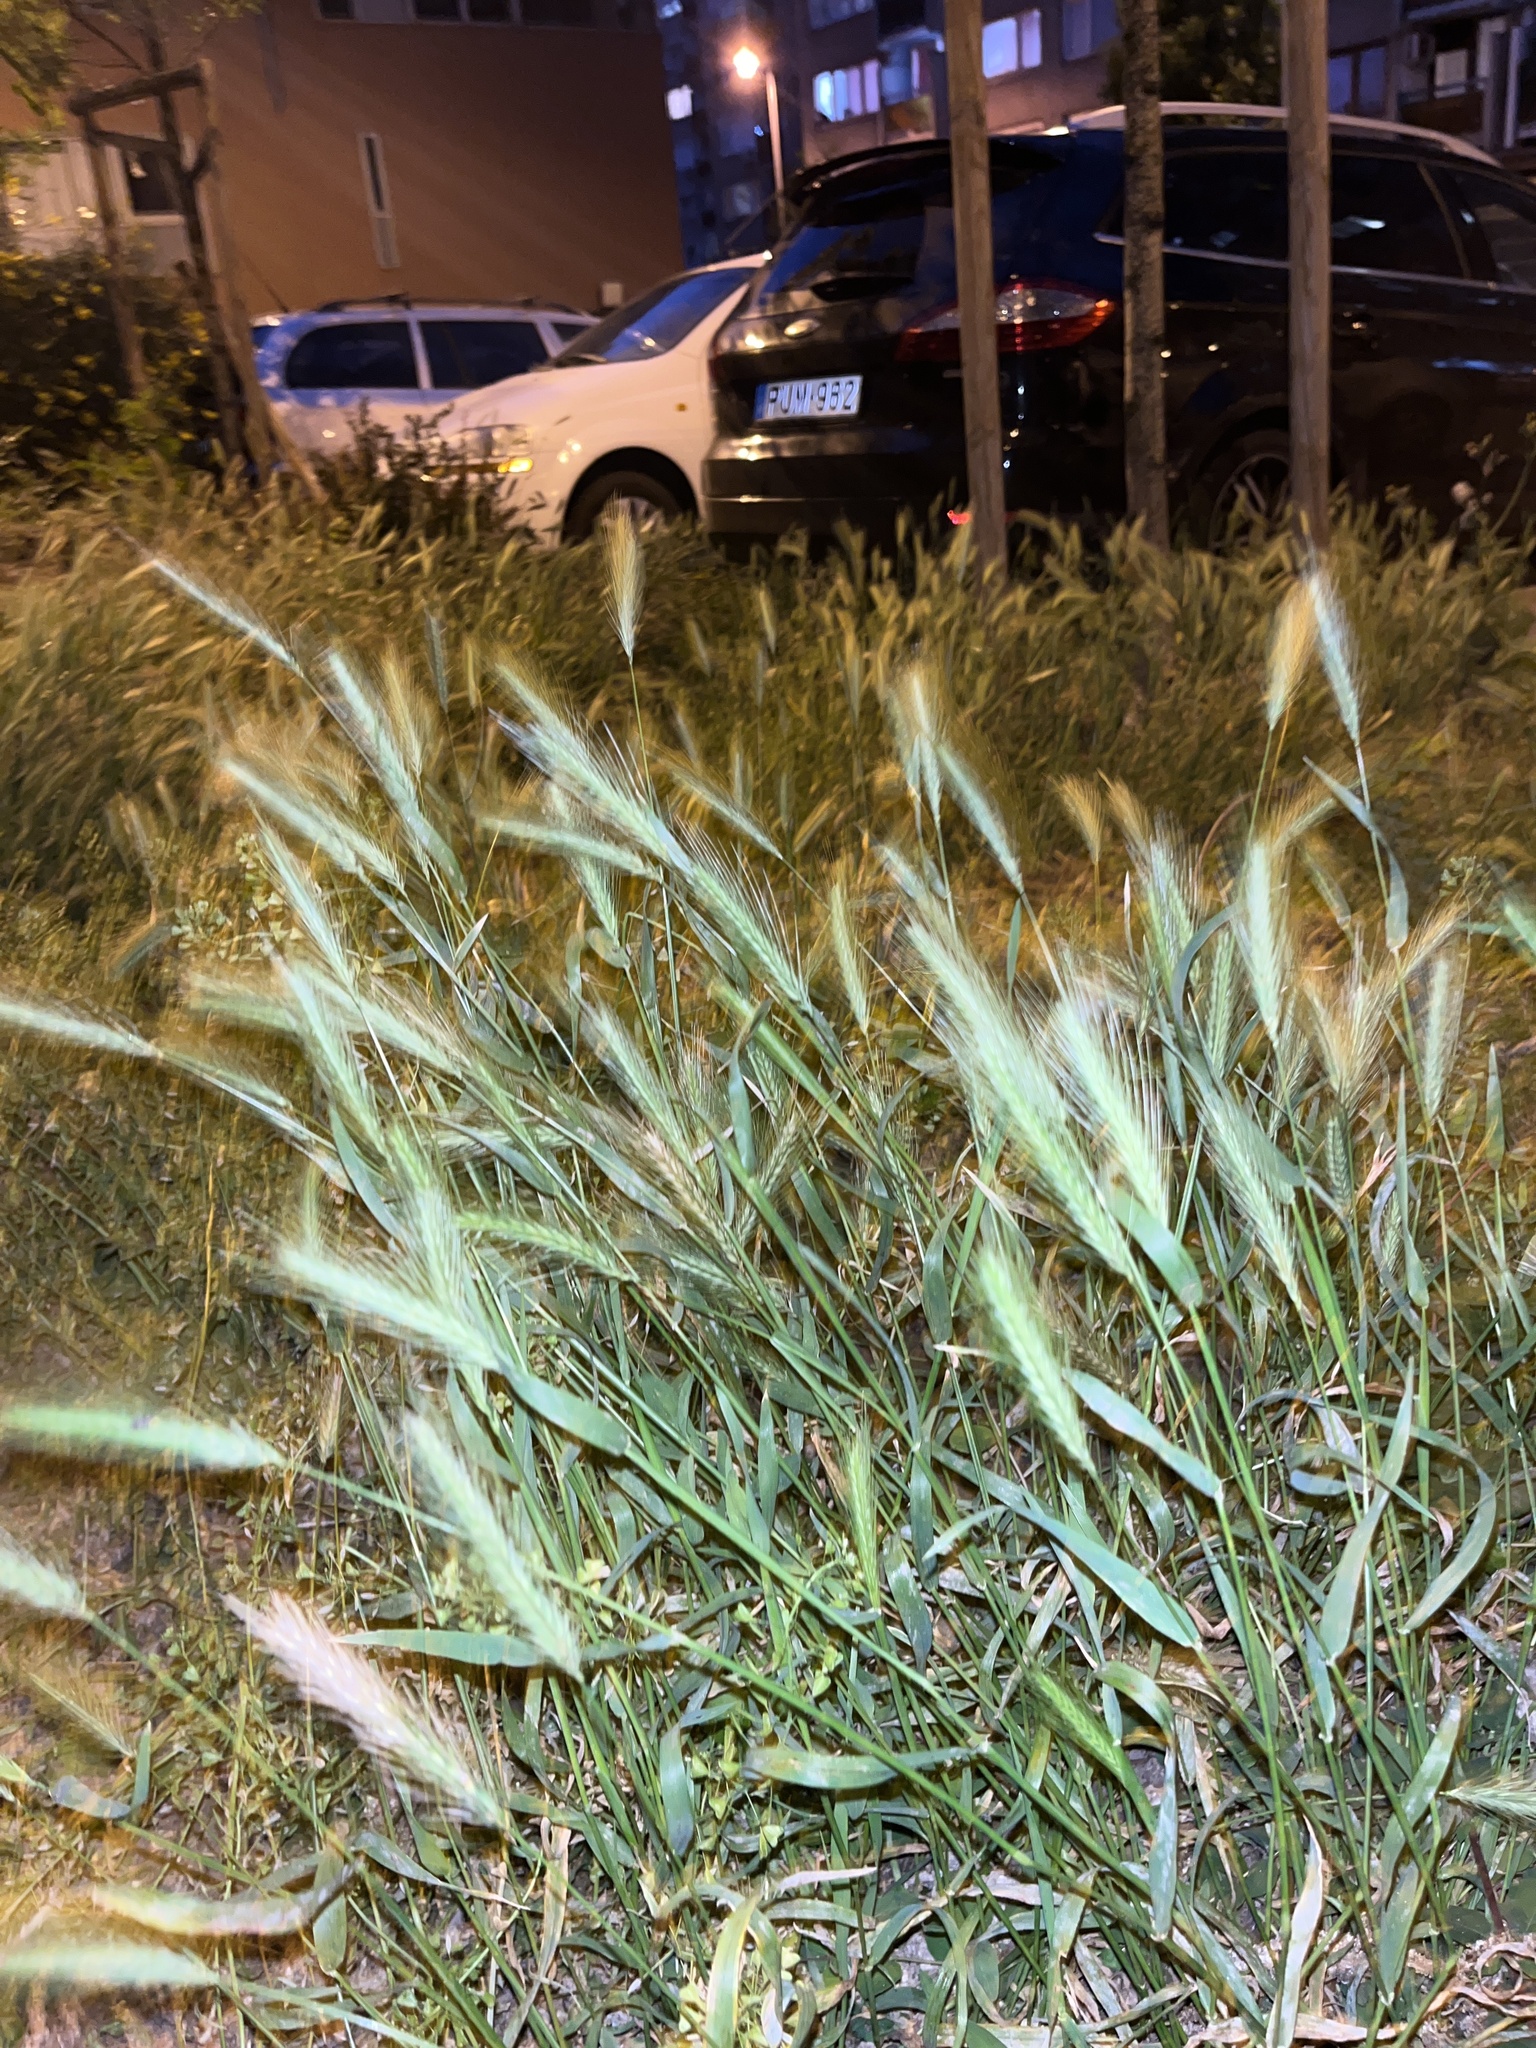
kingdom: Plantae
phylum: Tracheophyta
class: Liliopsida
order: Poales
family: Poaceae
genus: Hordeum
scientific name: Hordeum murinum
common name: Wall barley
